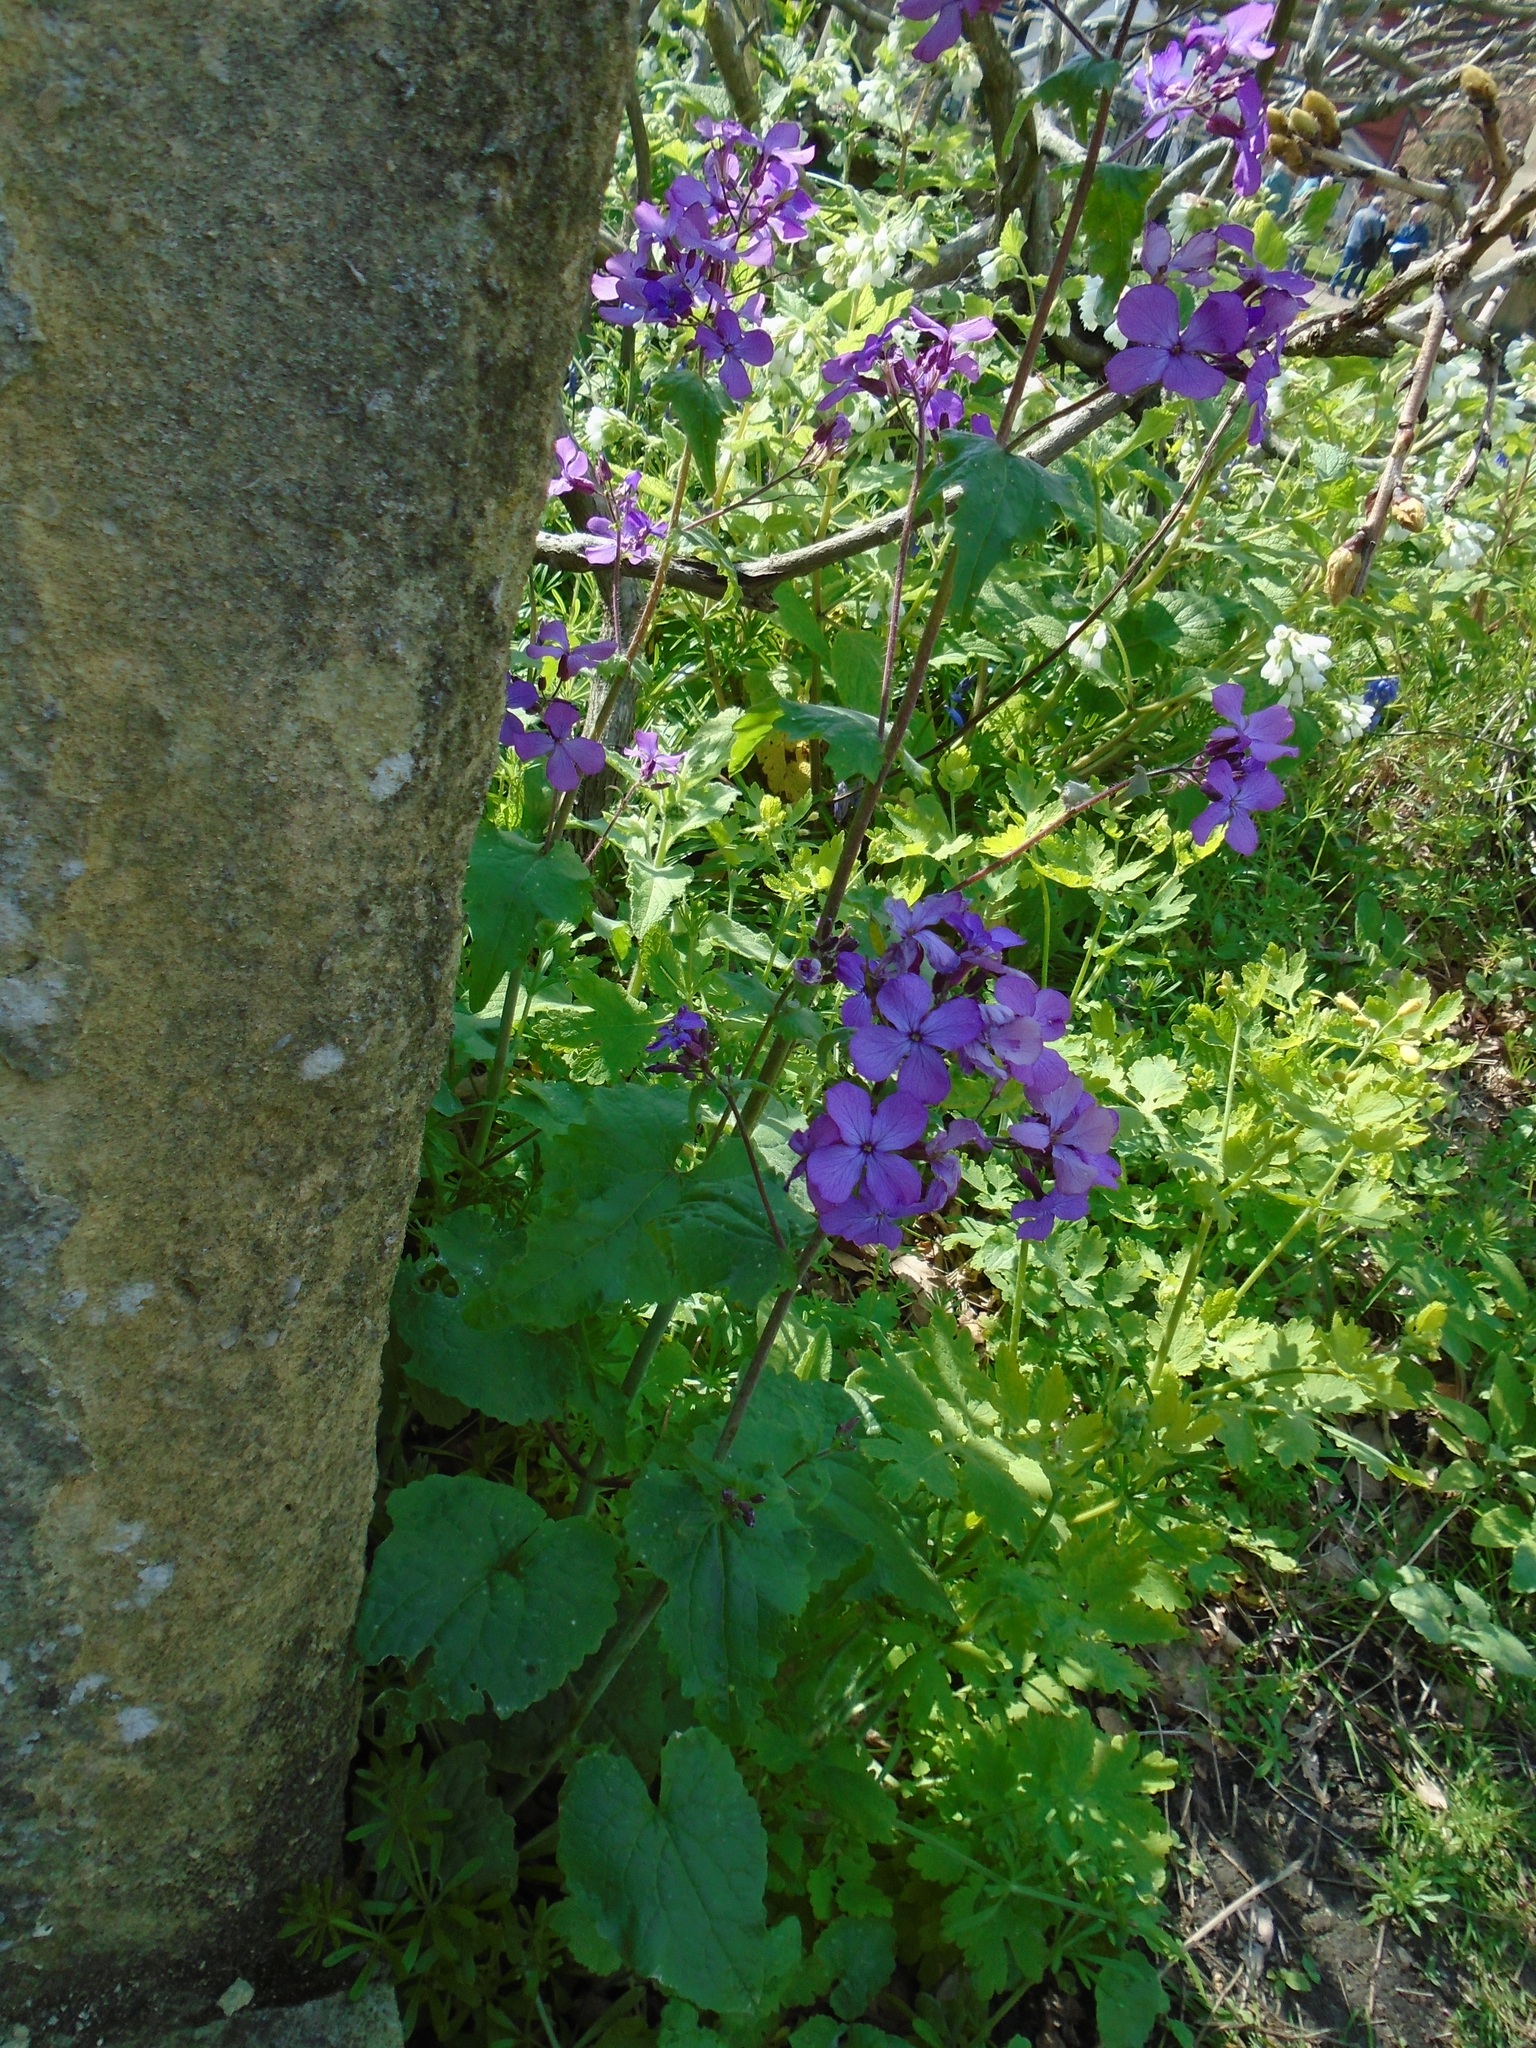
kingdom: Plantae
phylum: Tracheophyta
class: Magnoliopsida
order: Brassicales
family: Brassicaceae
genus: Lunaria
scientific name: Lunaria annua
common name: Honesty
